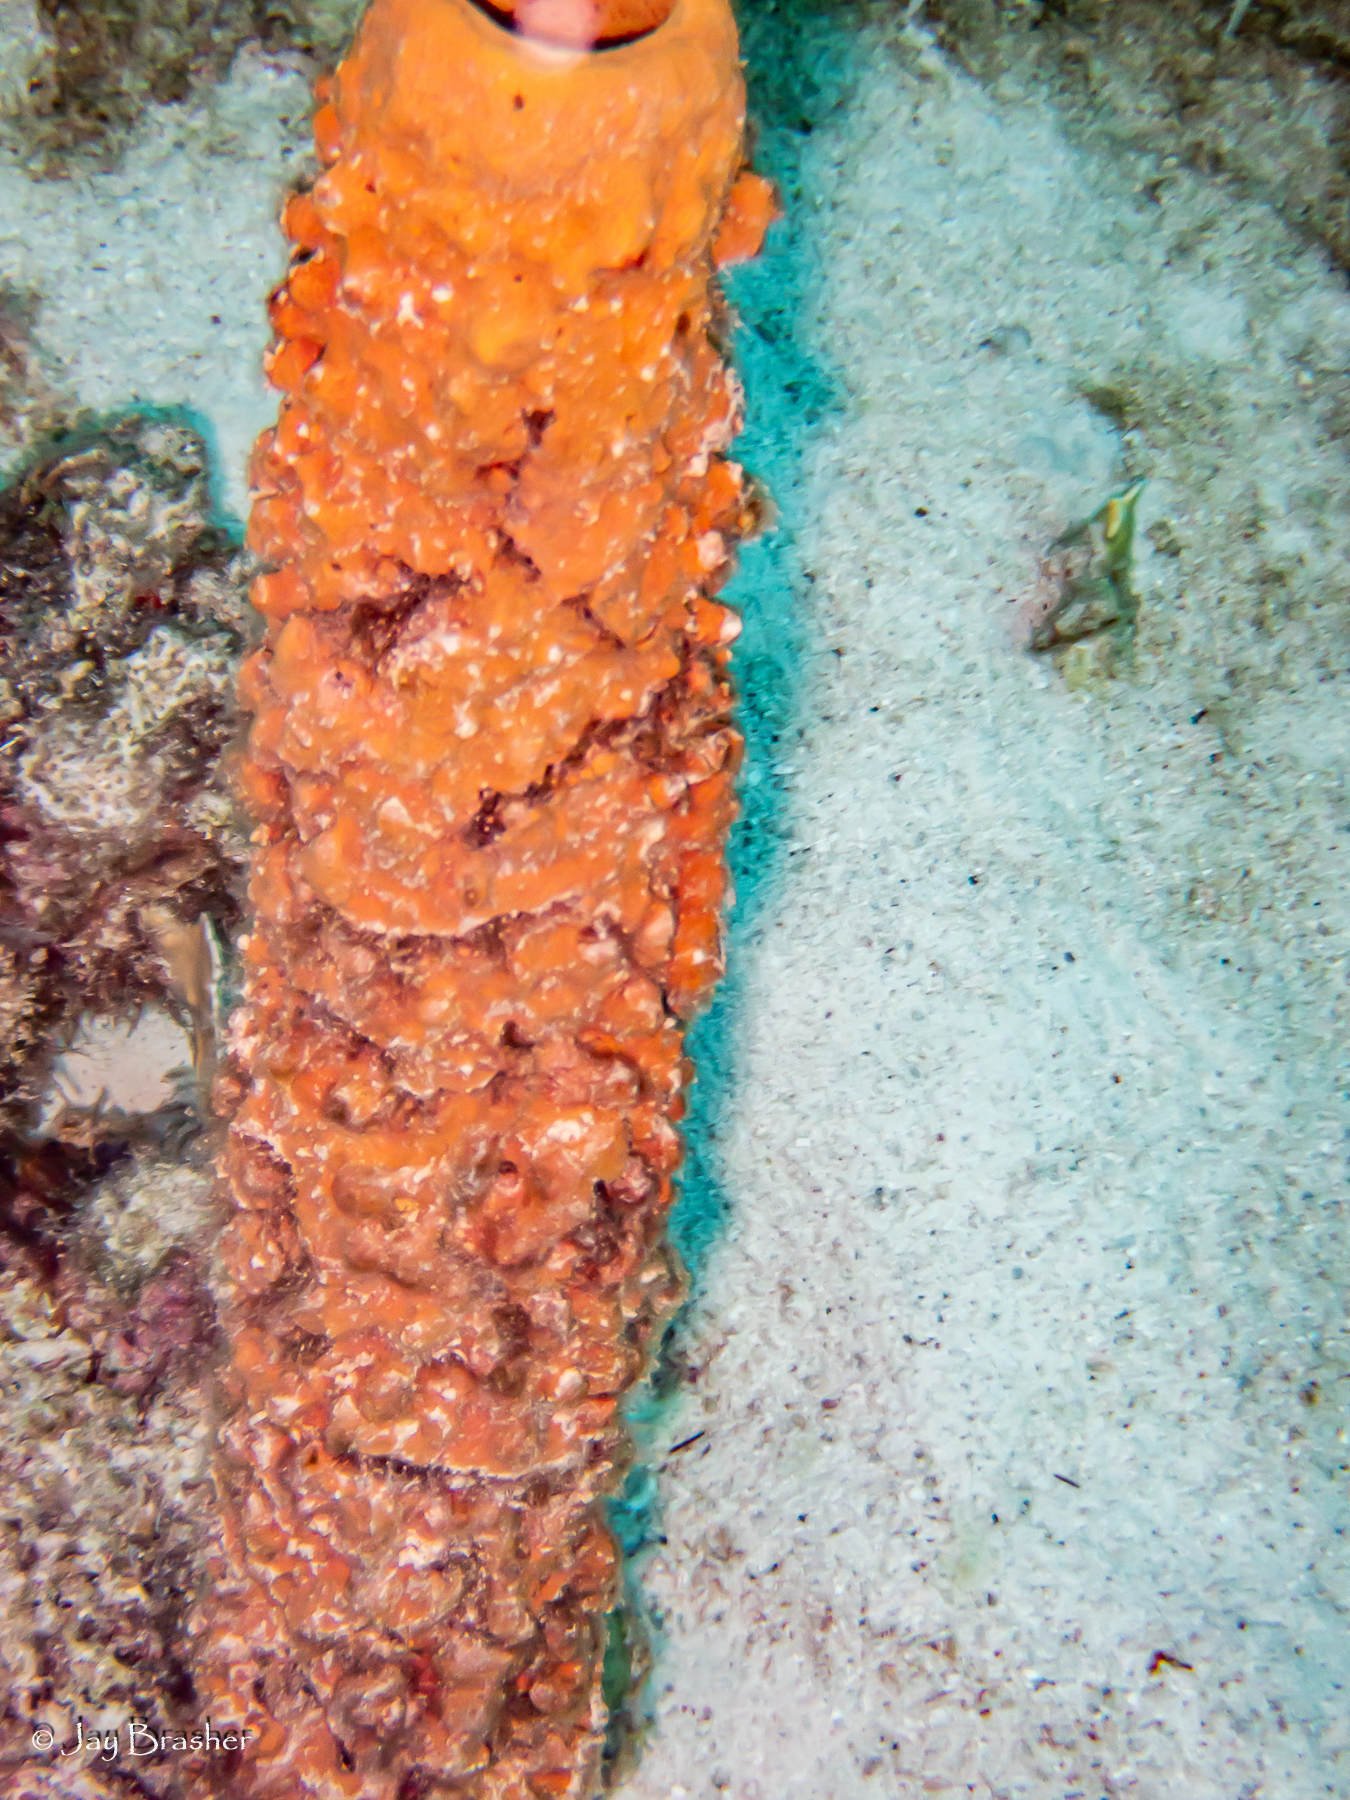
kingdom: Animalia
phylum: Porifera
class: Demospongiae
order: Verongiida
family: Aplysinidae
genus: Aplysina
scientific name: Aplysina archeri
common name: Stove-pipe sponge
